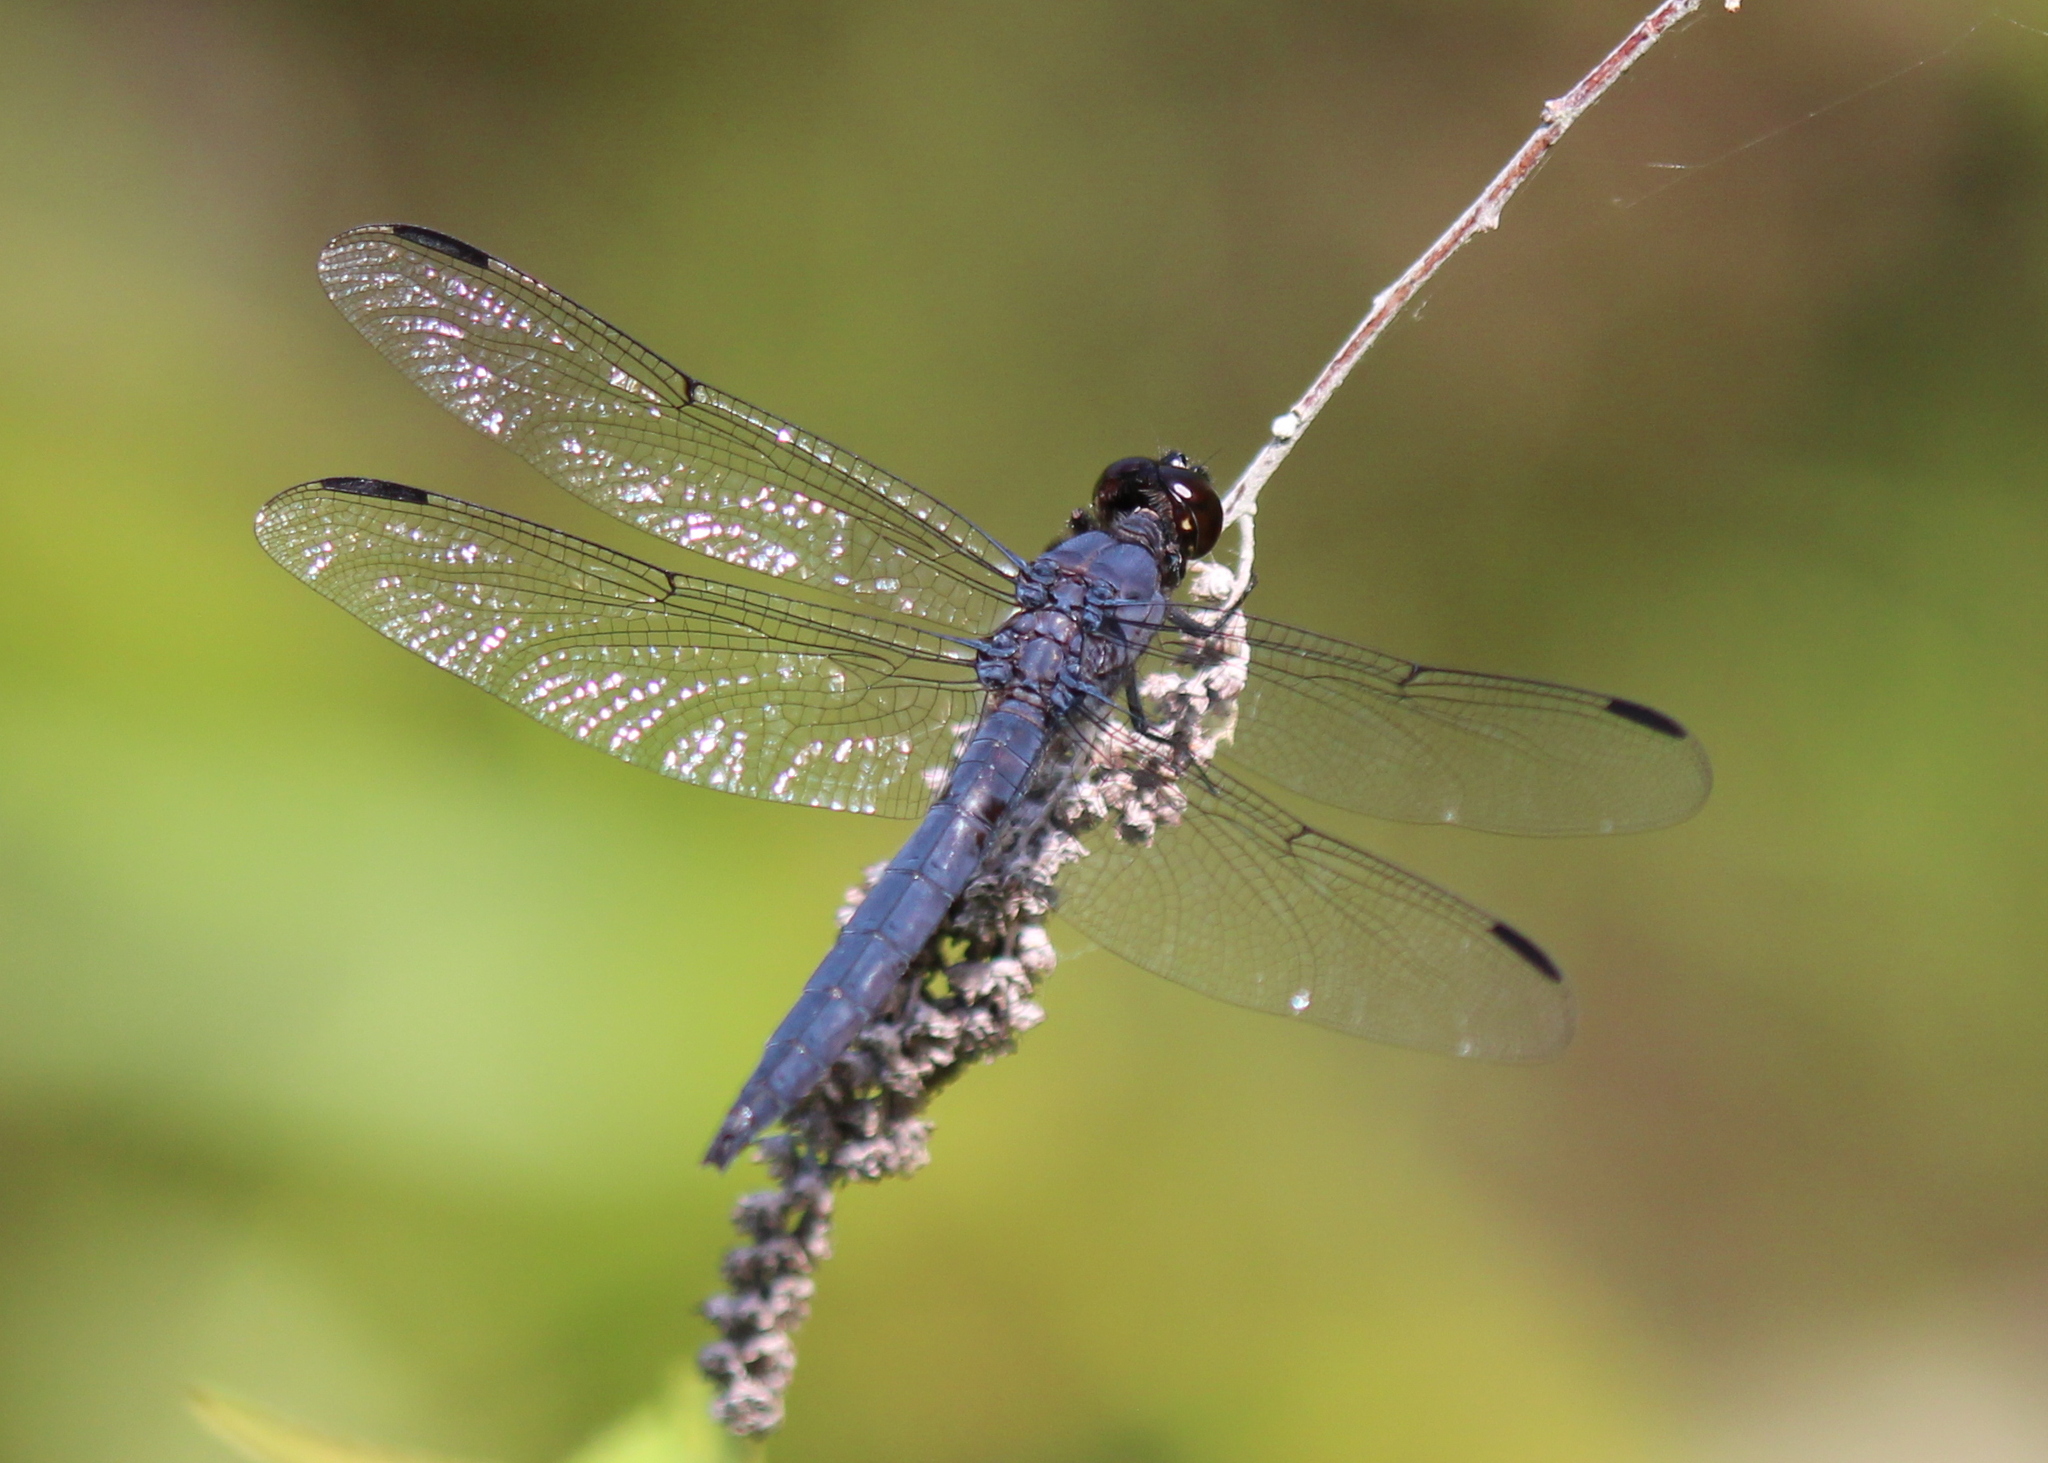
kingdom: Animalia
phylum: Arthropoda
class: Insecta
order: Odonata
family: Libellulidae
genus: Libellula
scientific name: Libellula incesta
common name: Slaty skimmer
